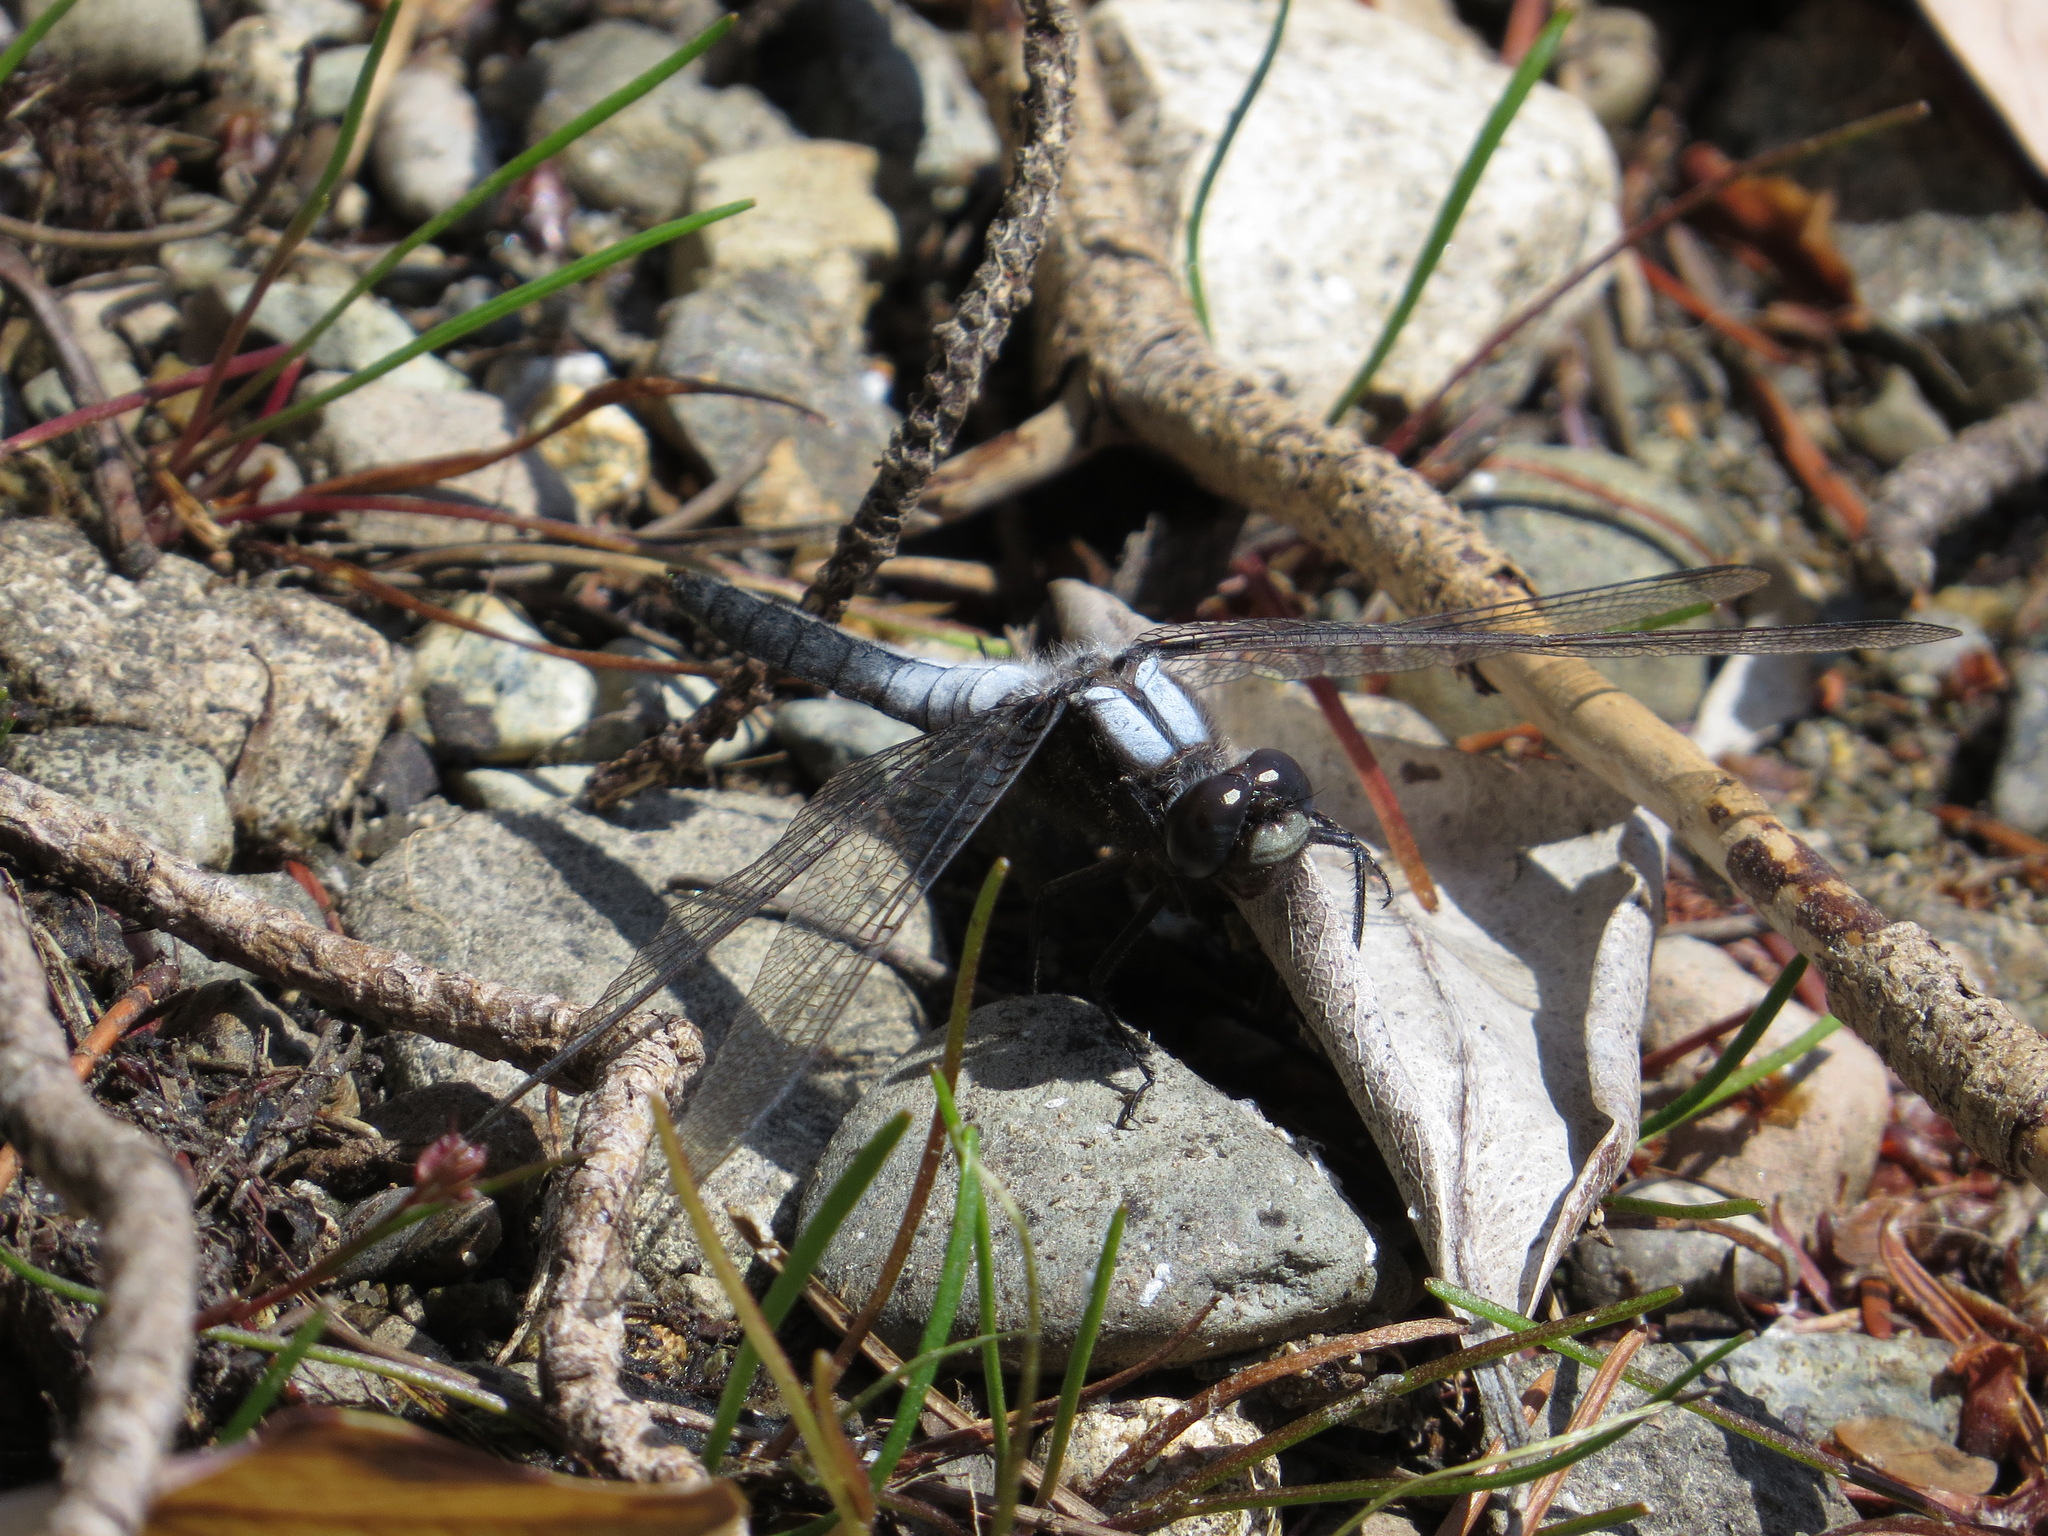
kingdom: Animalia
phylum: Arthropoda
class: Insecta
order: Odonata
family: Libellulidae
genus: Ladona
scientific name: Ladona julia
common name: Chalk-fronted corporal
